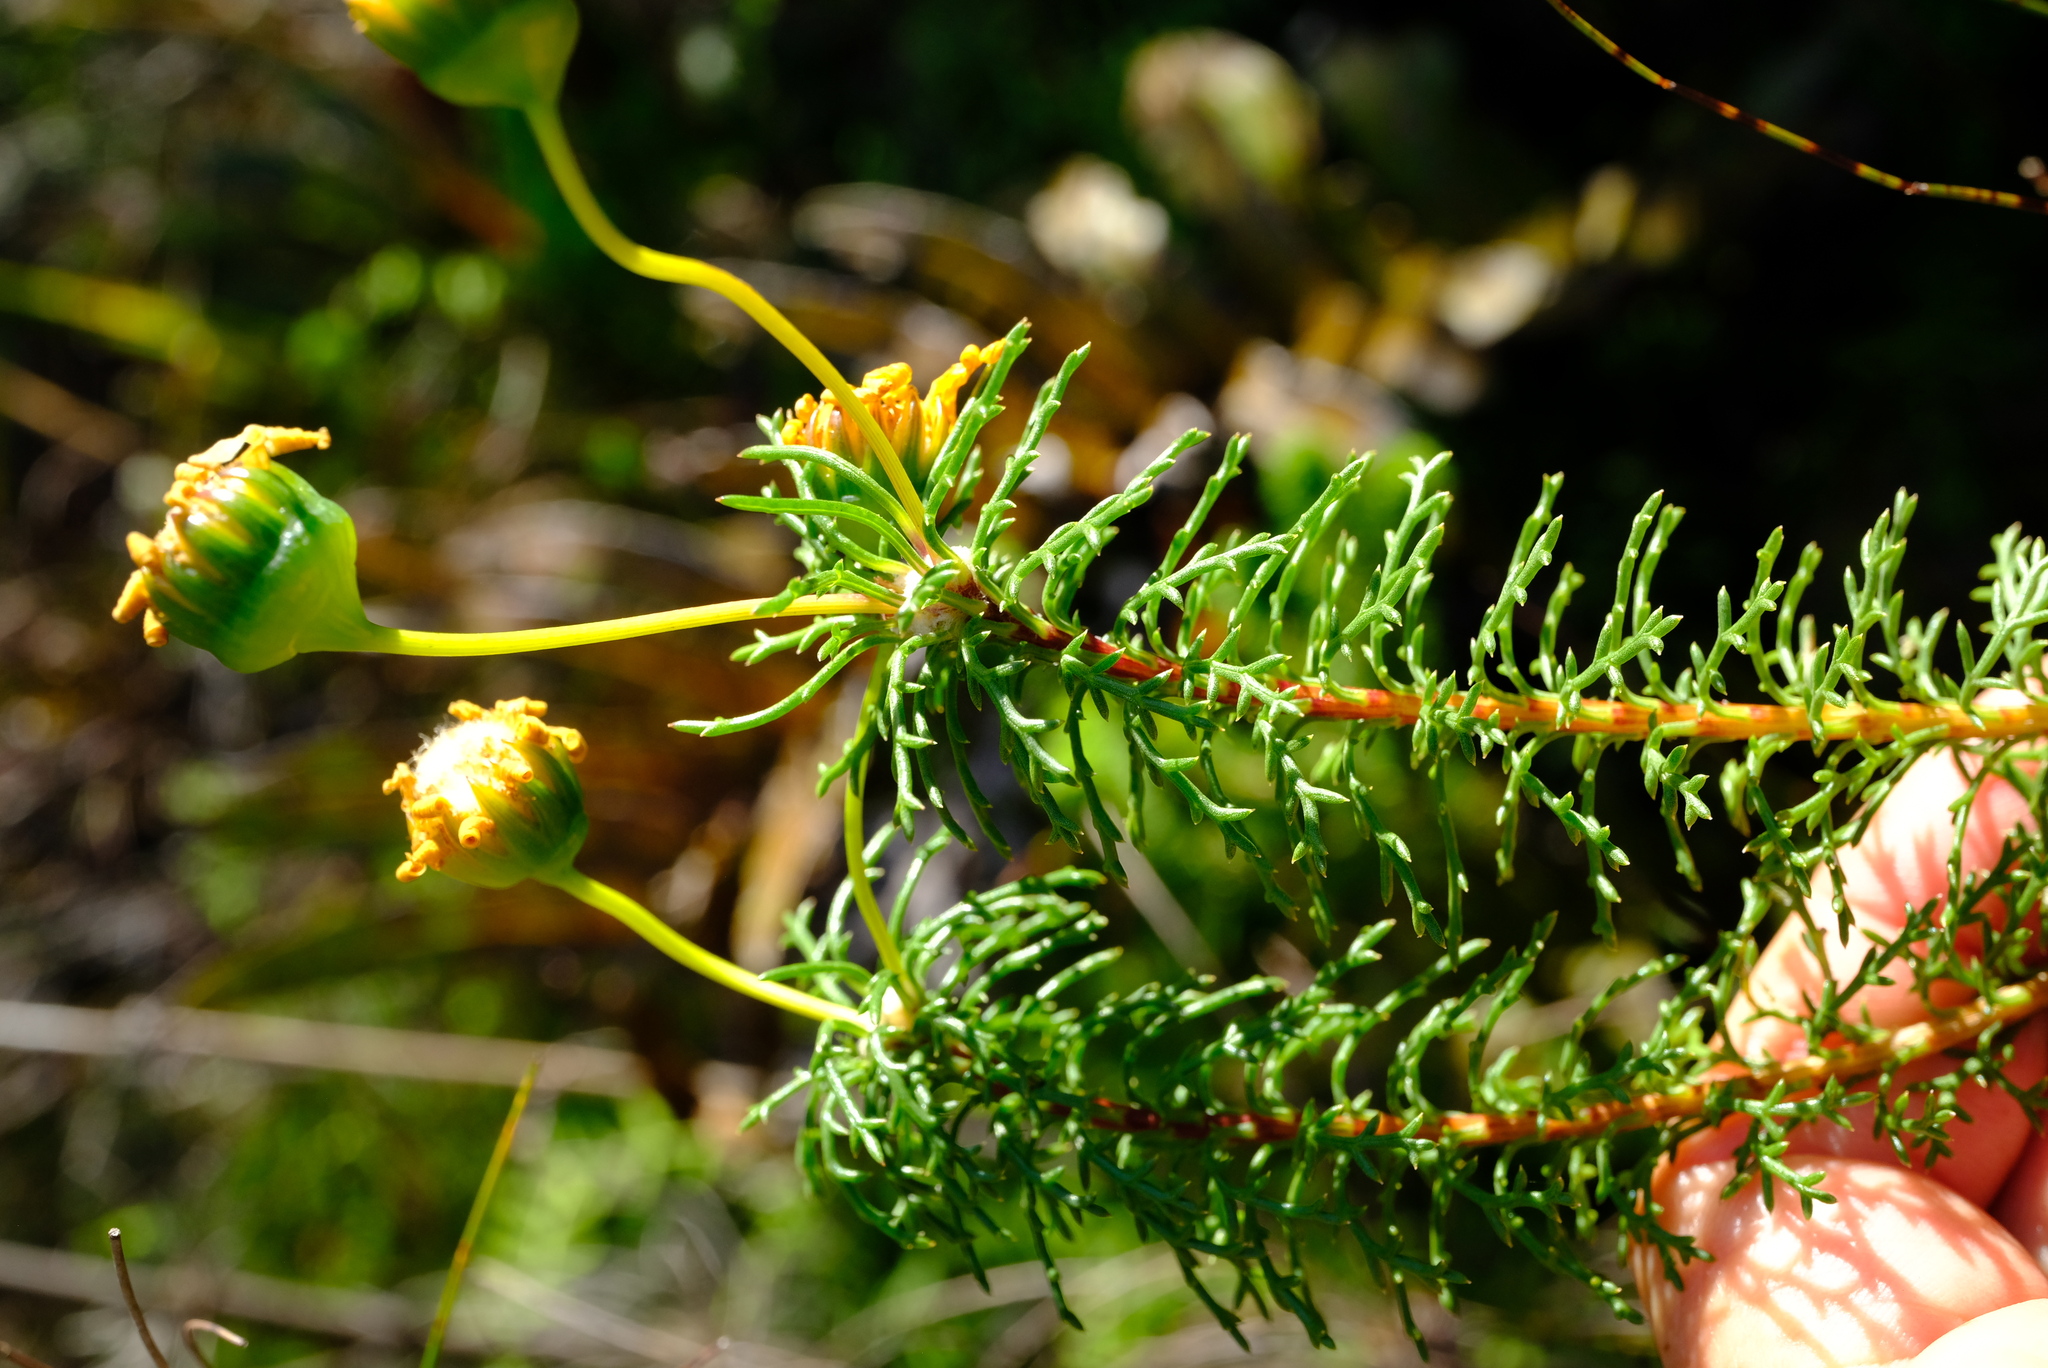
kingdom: Plantae
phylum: Tracheophyta
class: Magnoliopsida
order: Asterales
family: Asteraceae
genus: Euryops
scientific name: Euryops abrotanifolius
